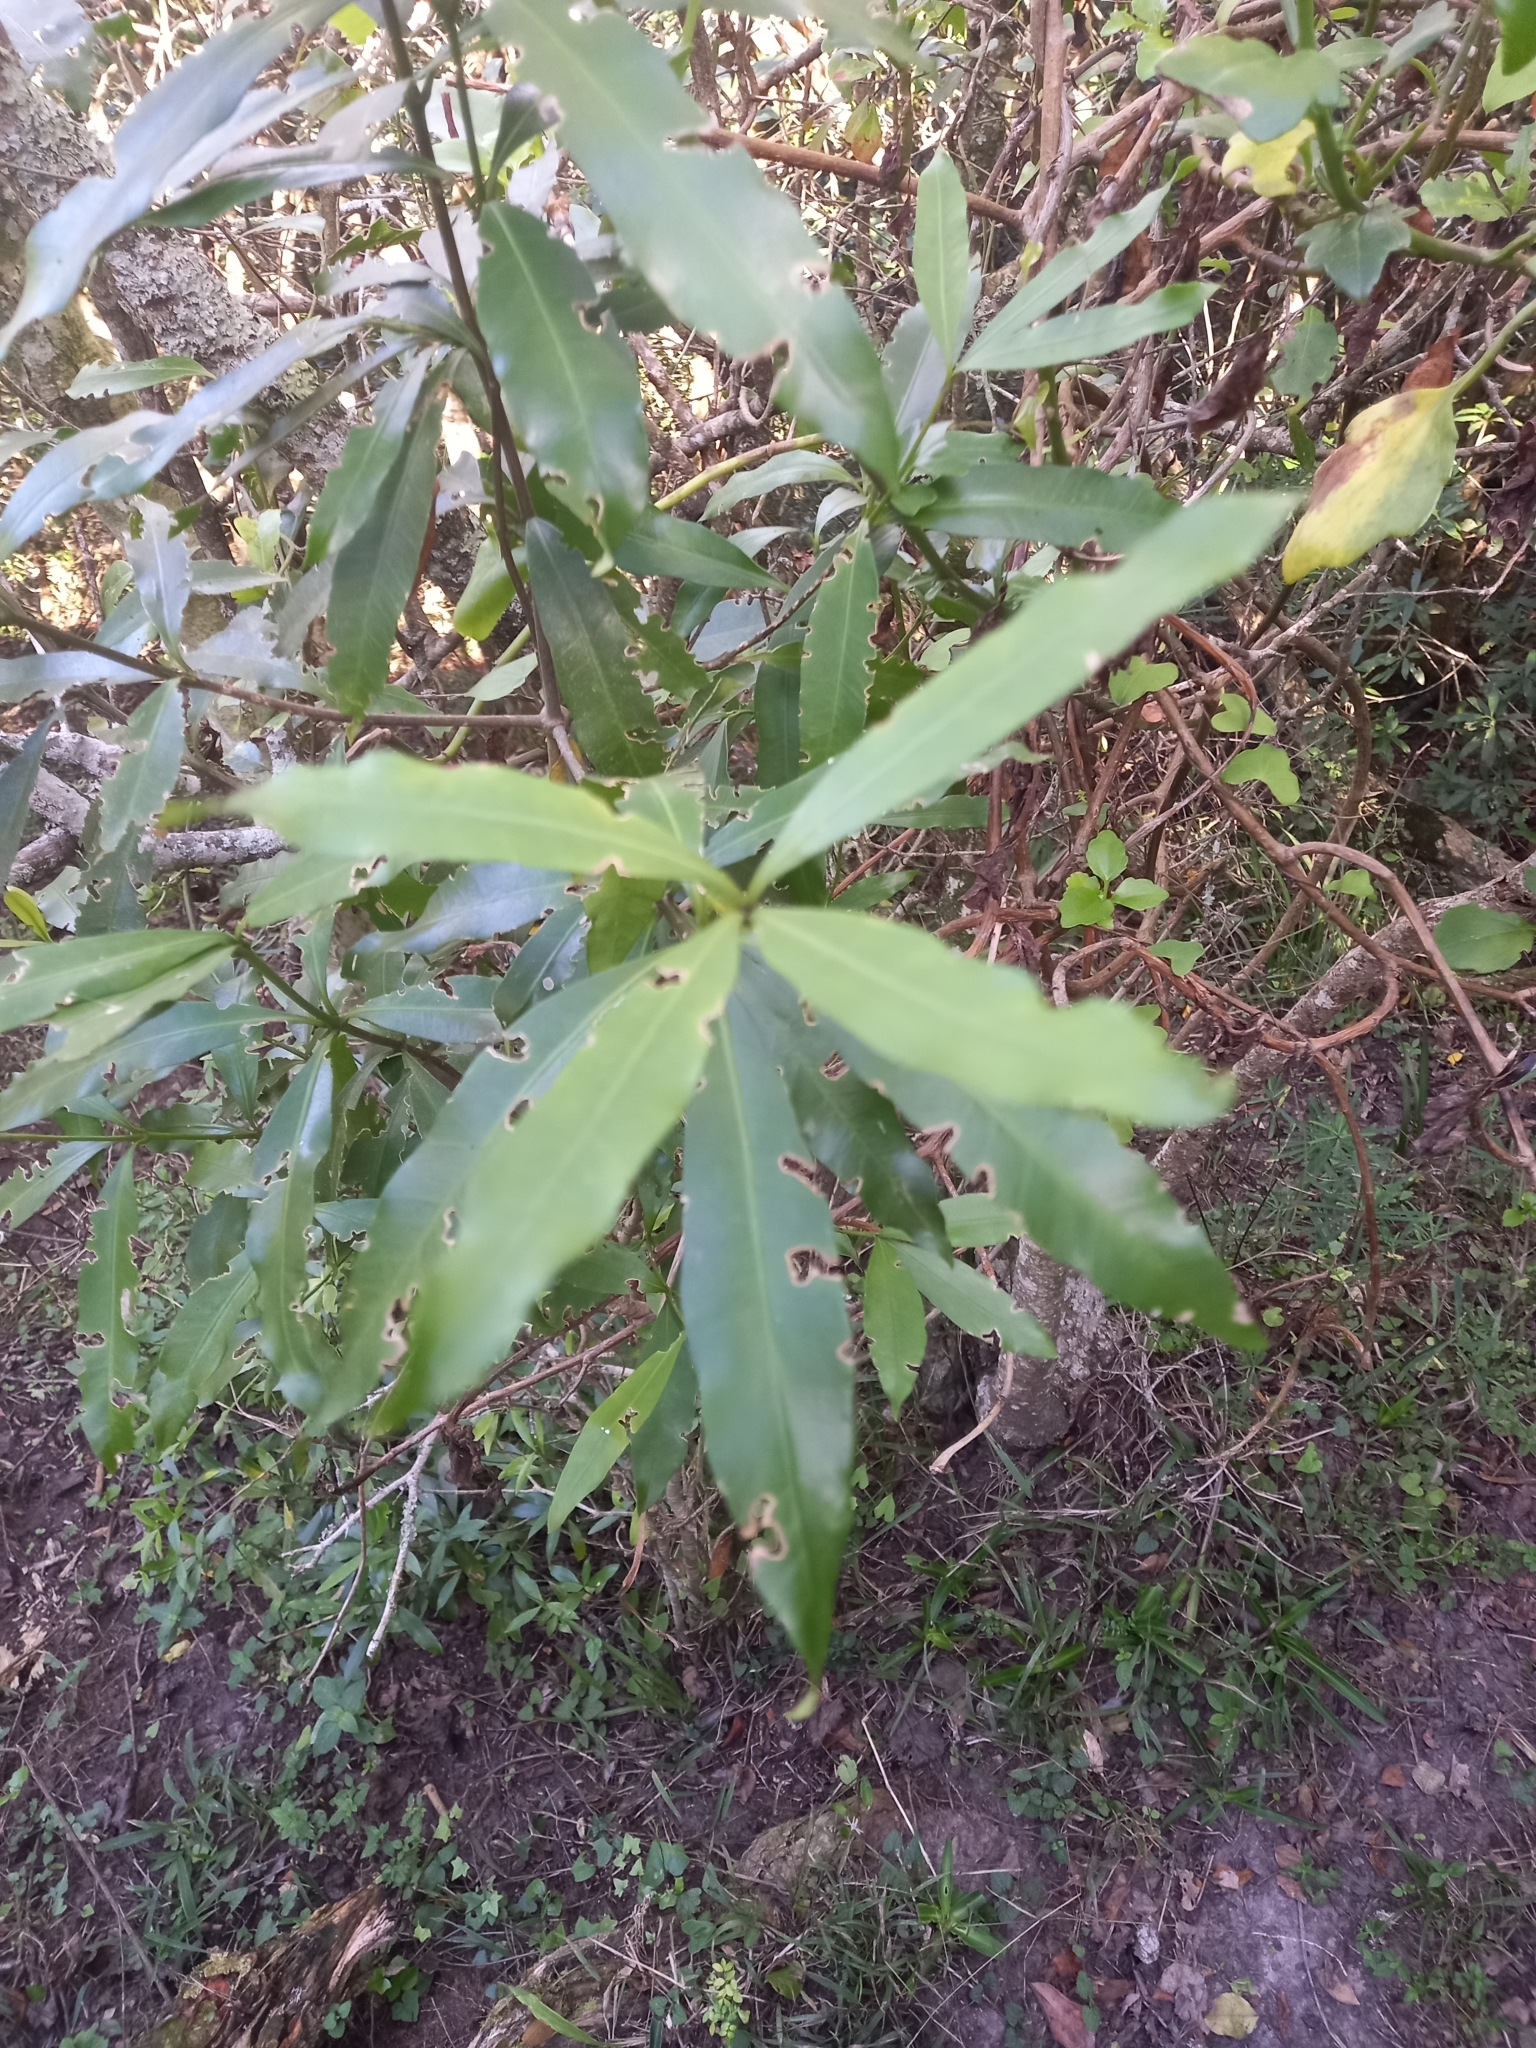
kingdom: Plantae
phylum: Tracheophyta
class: Magnoliopsida
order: Gentianales
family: Apocynaceae
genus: Gonioma
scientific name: Gonioma kamassi
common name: Kamassi
